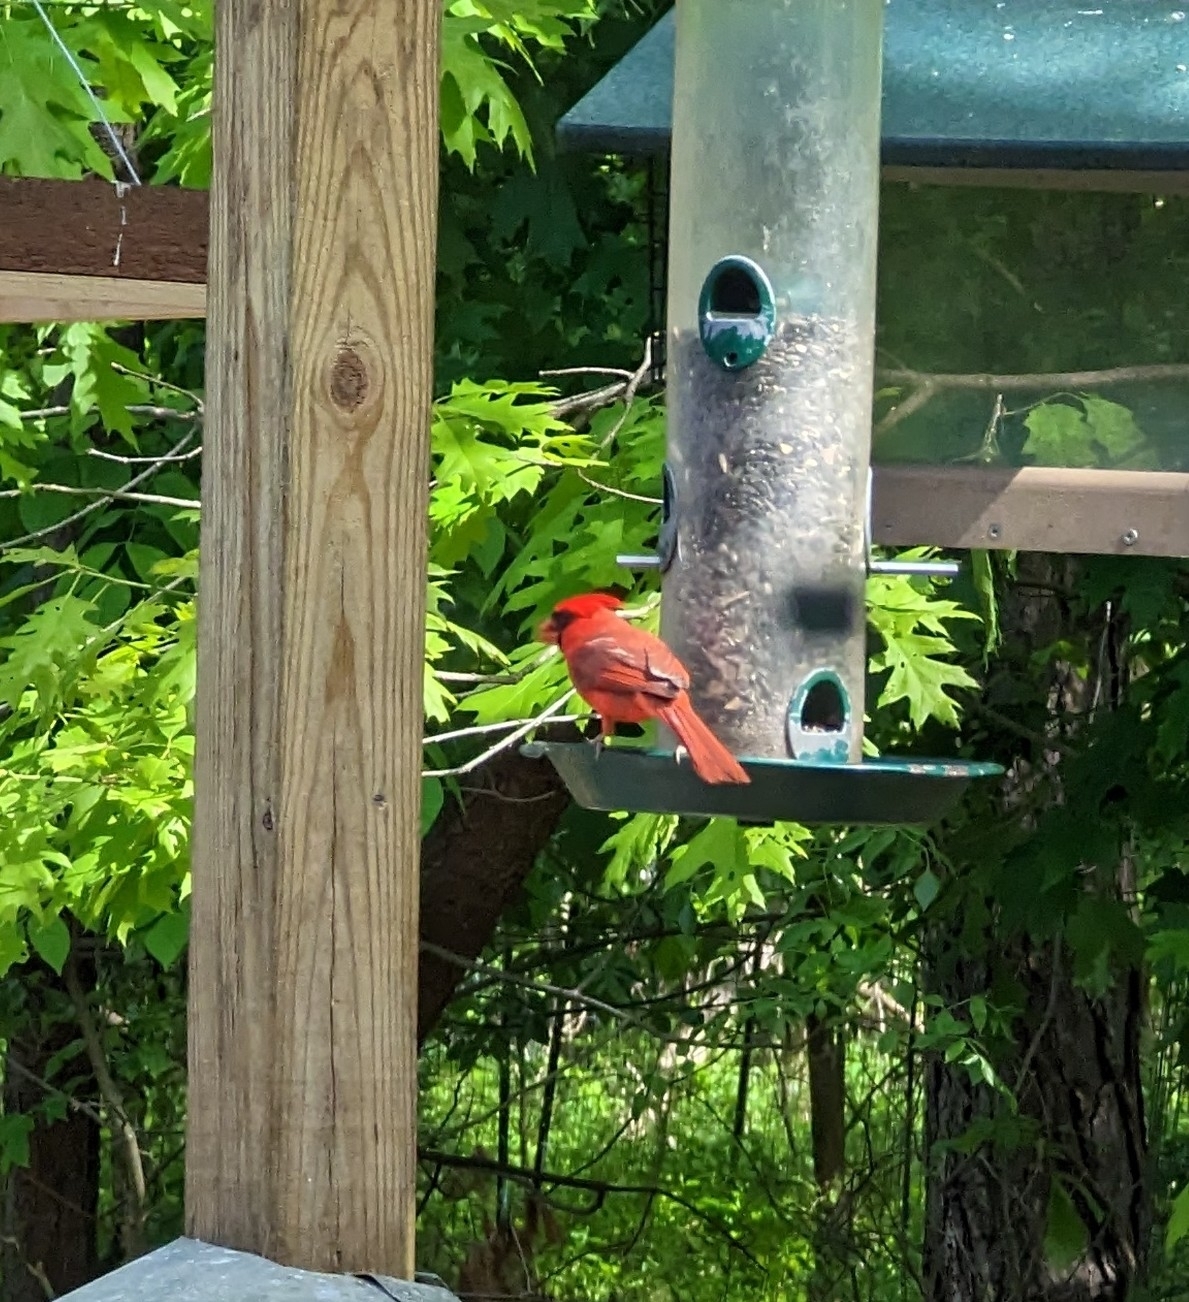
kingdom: Animalia
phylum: Chordata
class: Aves
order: Passeriformes
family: Cardinalidae
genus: Cardinalis
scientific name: Cardinalis cardinalis
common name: Northern cardinal
